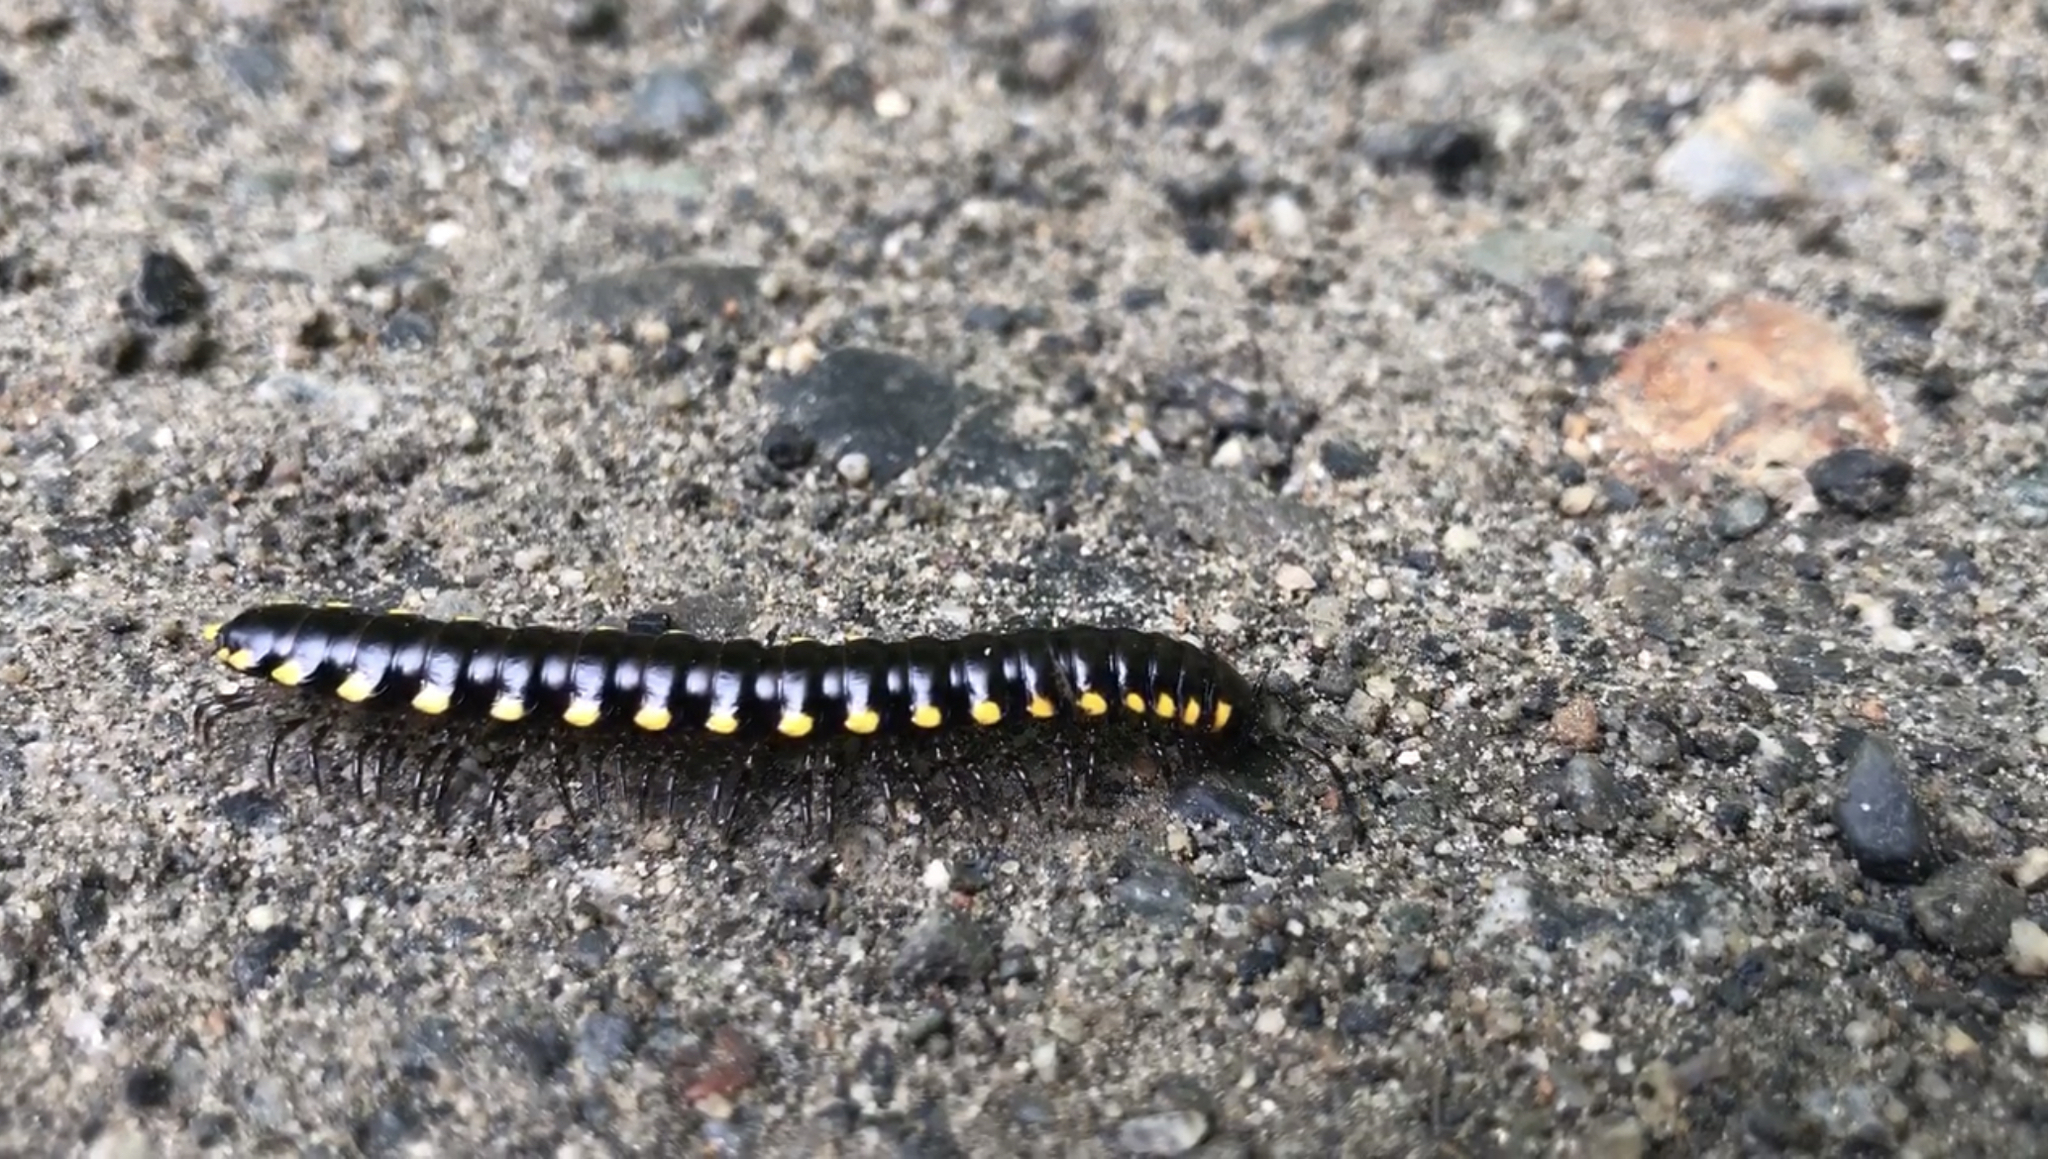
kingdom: Animalia
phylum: Arthropoda
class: Diplopoda
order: Polydesmida
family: Xystodesmidae
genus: Harpaphe
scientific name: Harpaphe haydeniana
